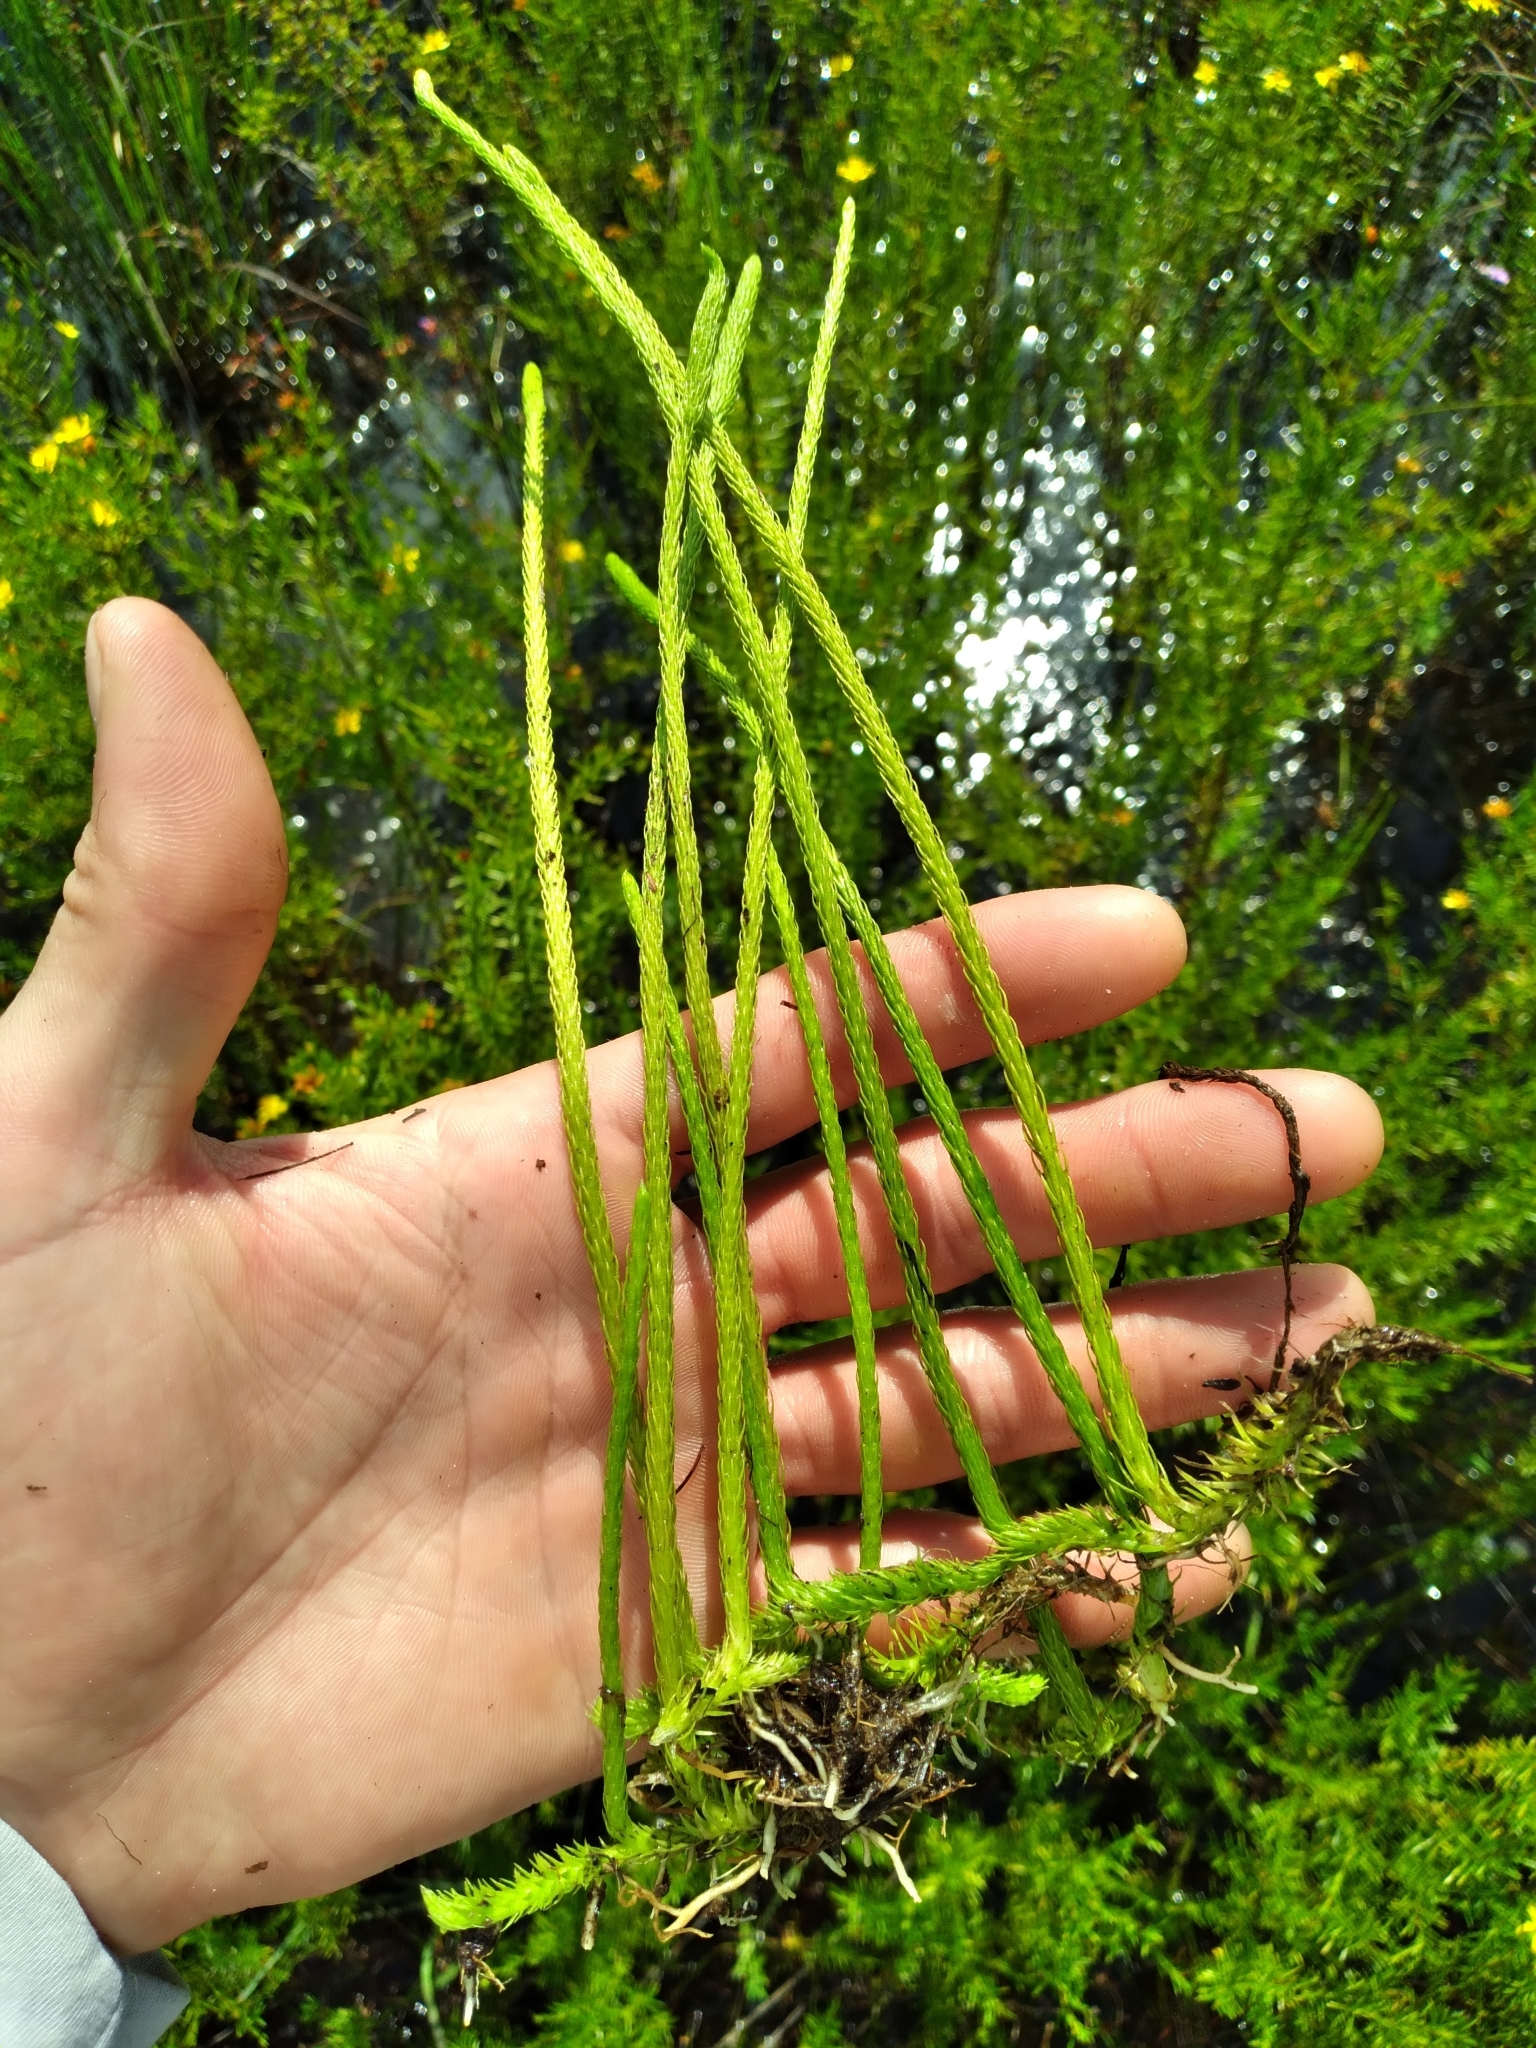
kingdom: Plantae
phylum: Tracheophyta
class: Lycopodiopsida
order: Lycopodiales
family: Lycopodiaceae
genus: Lycopodiella
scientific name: Lycopodiella appressa
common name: Appressed bog clubmoss
